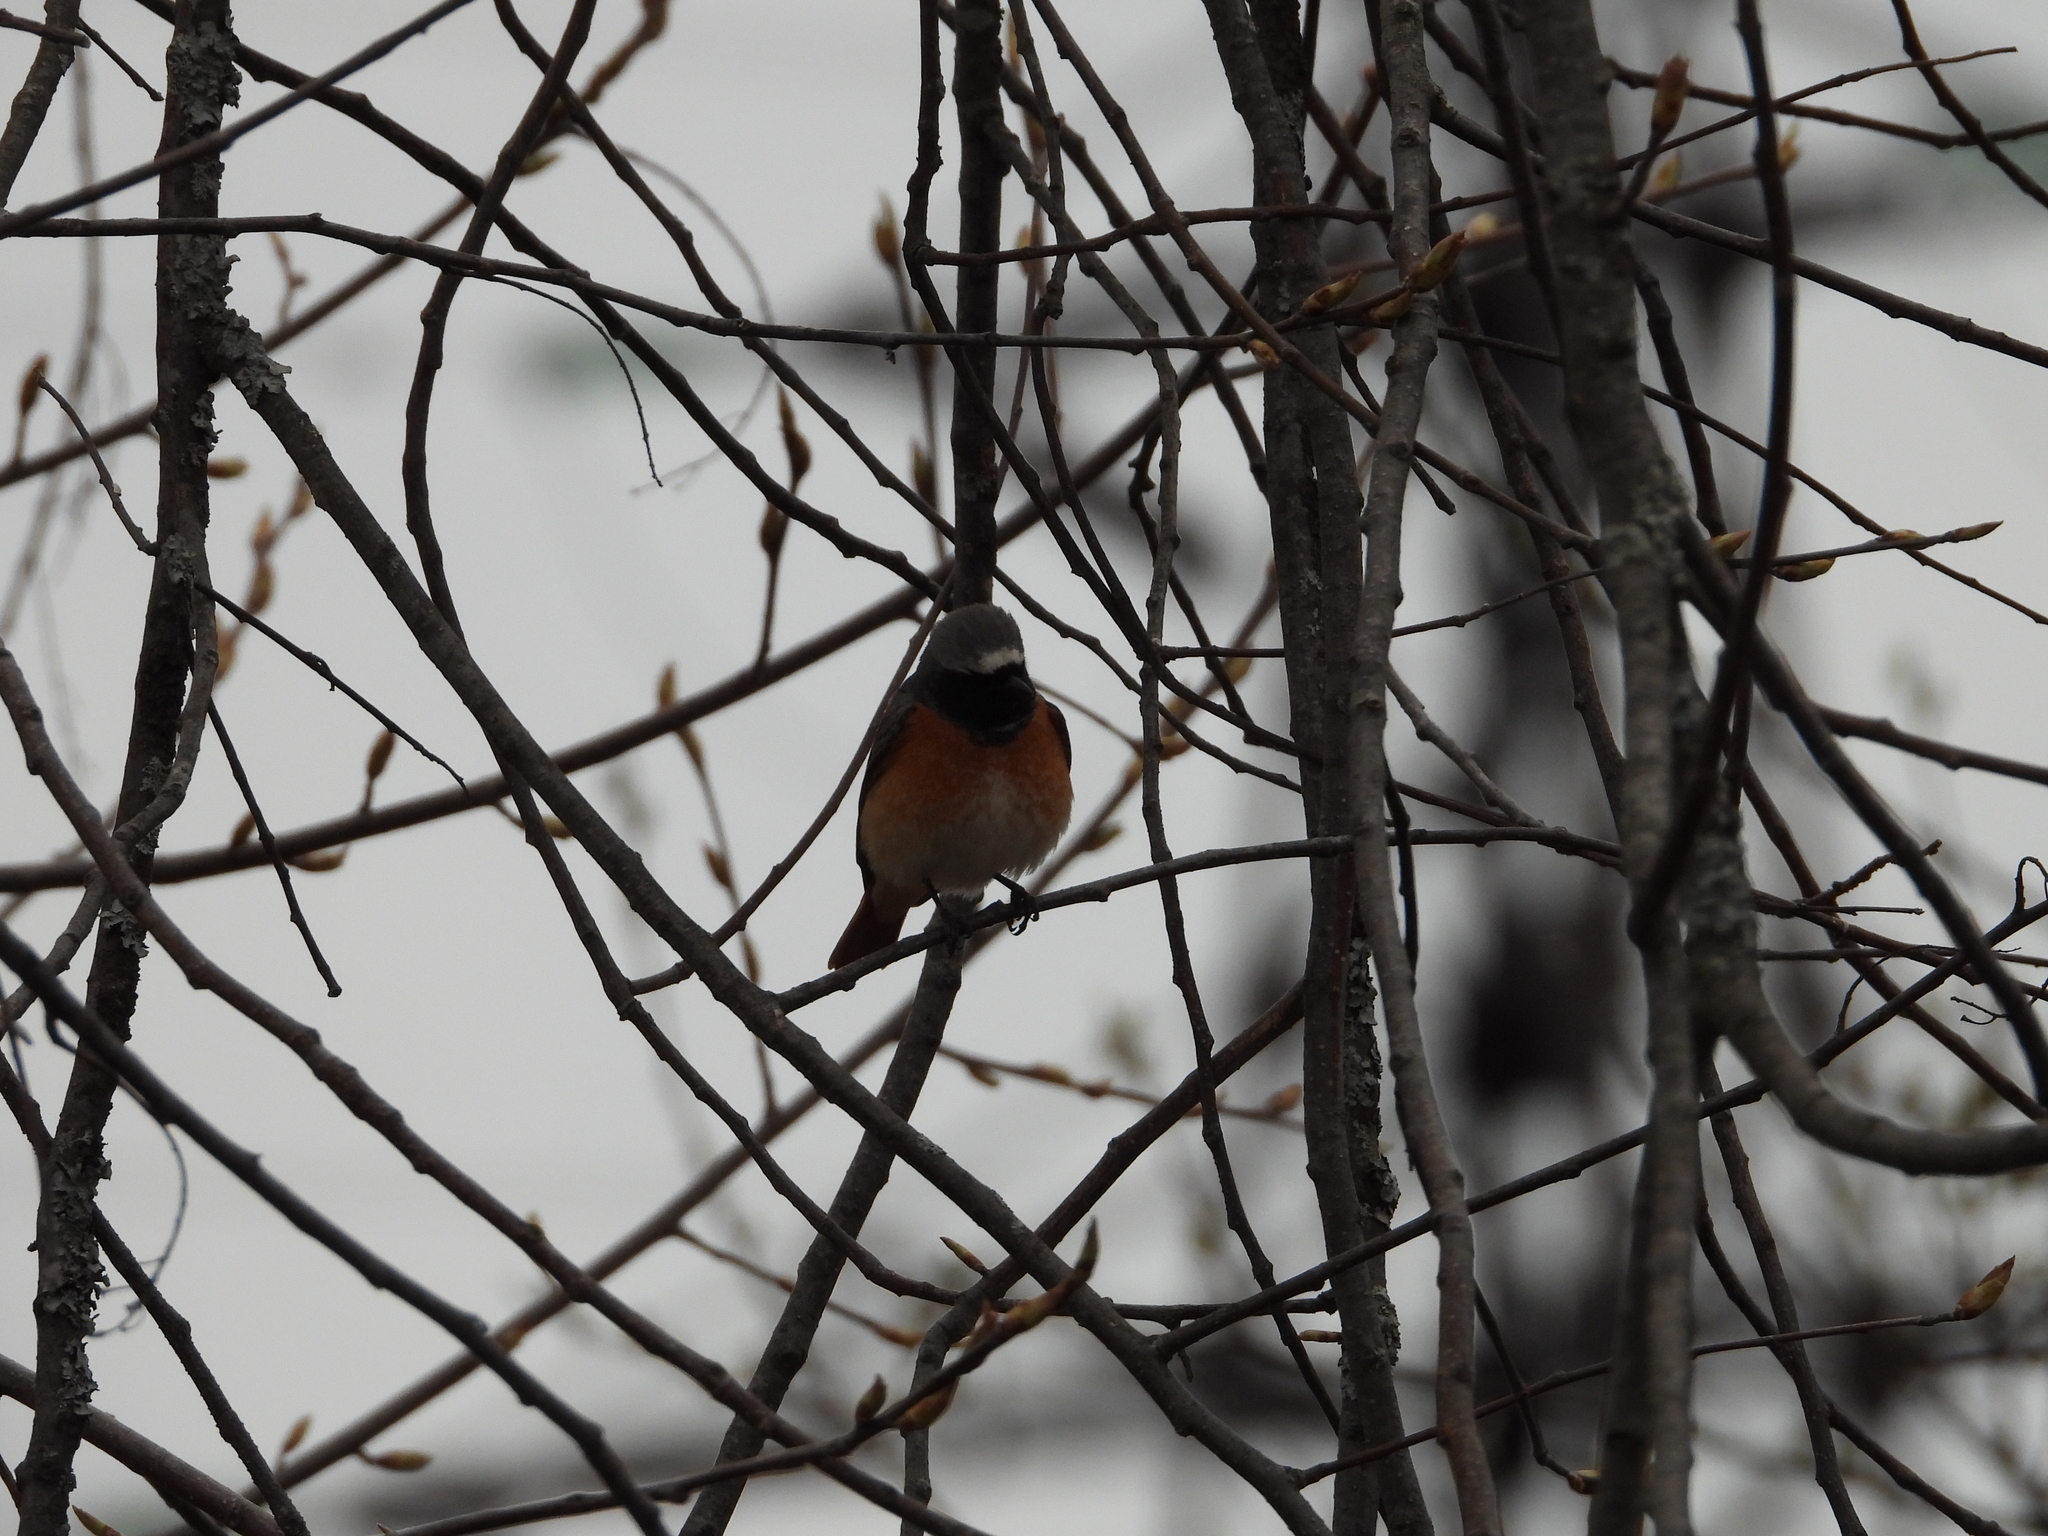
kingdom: Animalia
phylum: Chordata
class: Aves
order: Passeriformes
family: Muscicapidae
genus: Phoenicurus
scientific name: Phoenicurus phoenicurus
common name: Common redstart
